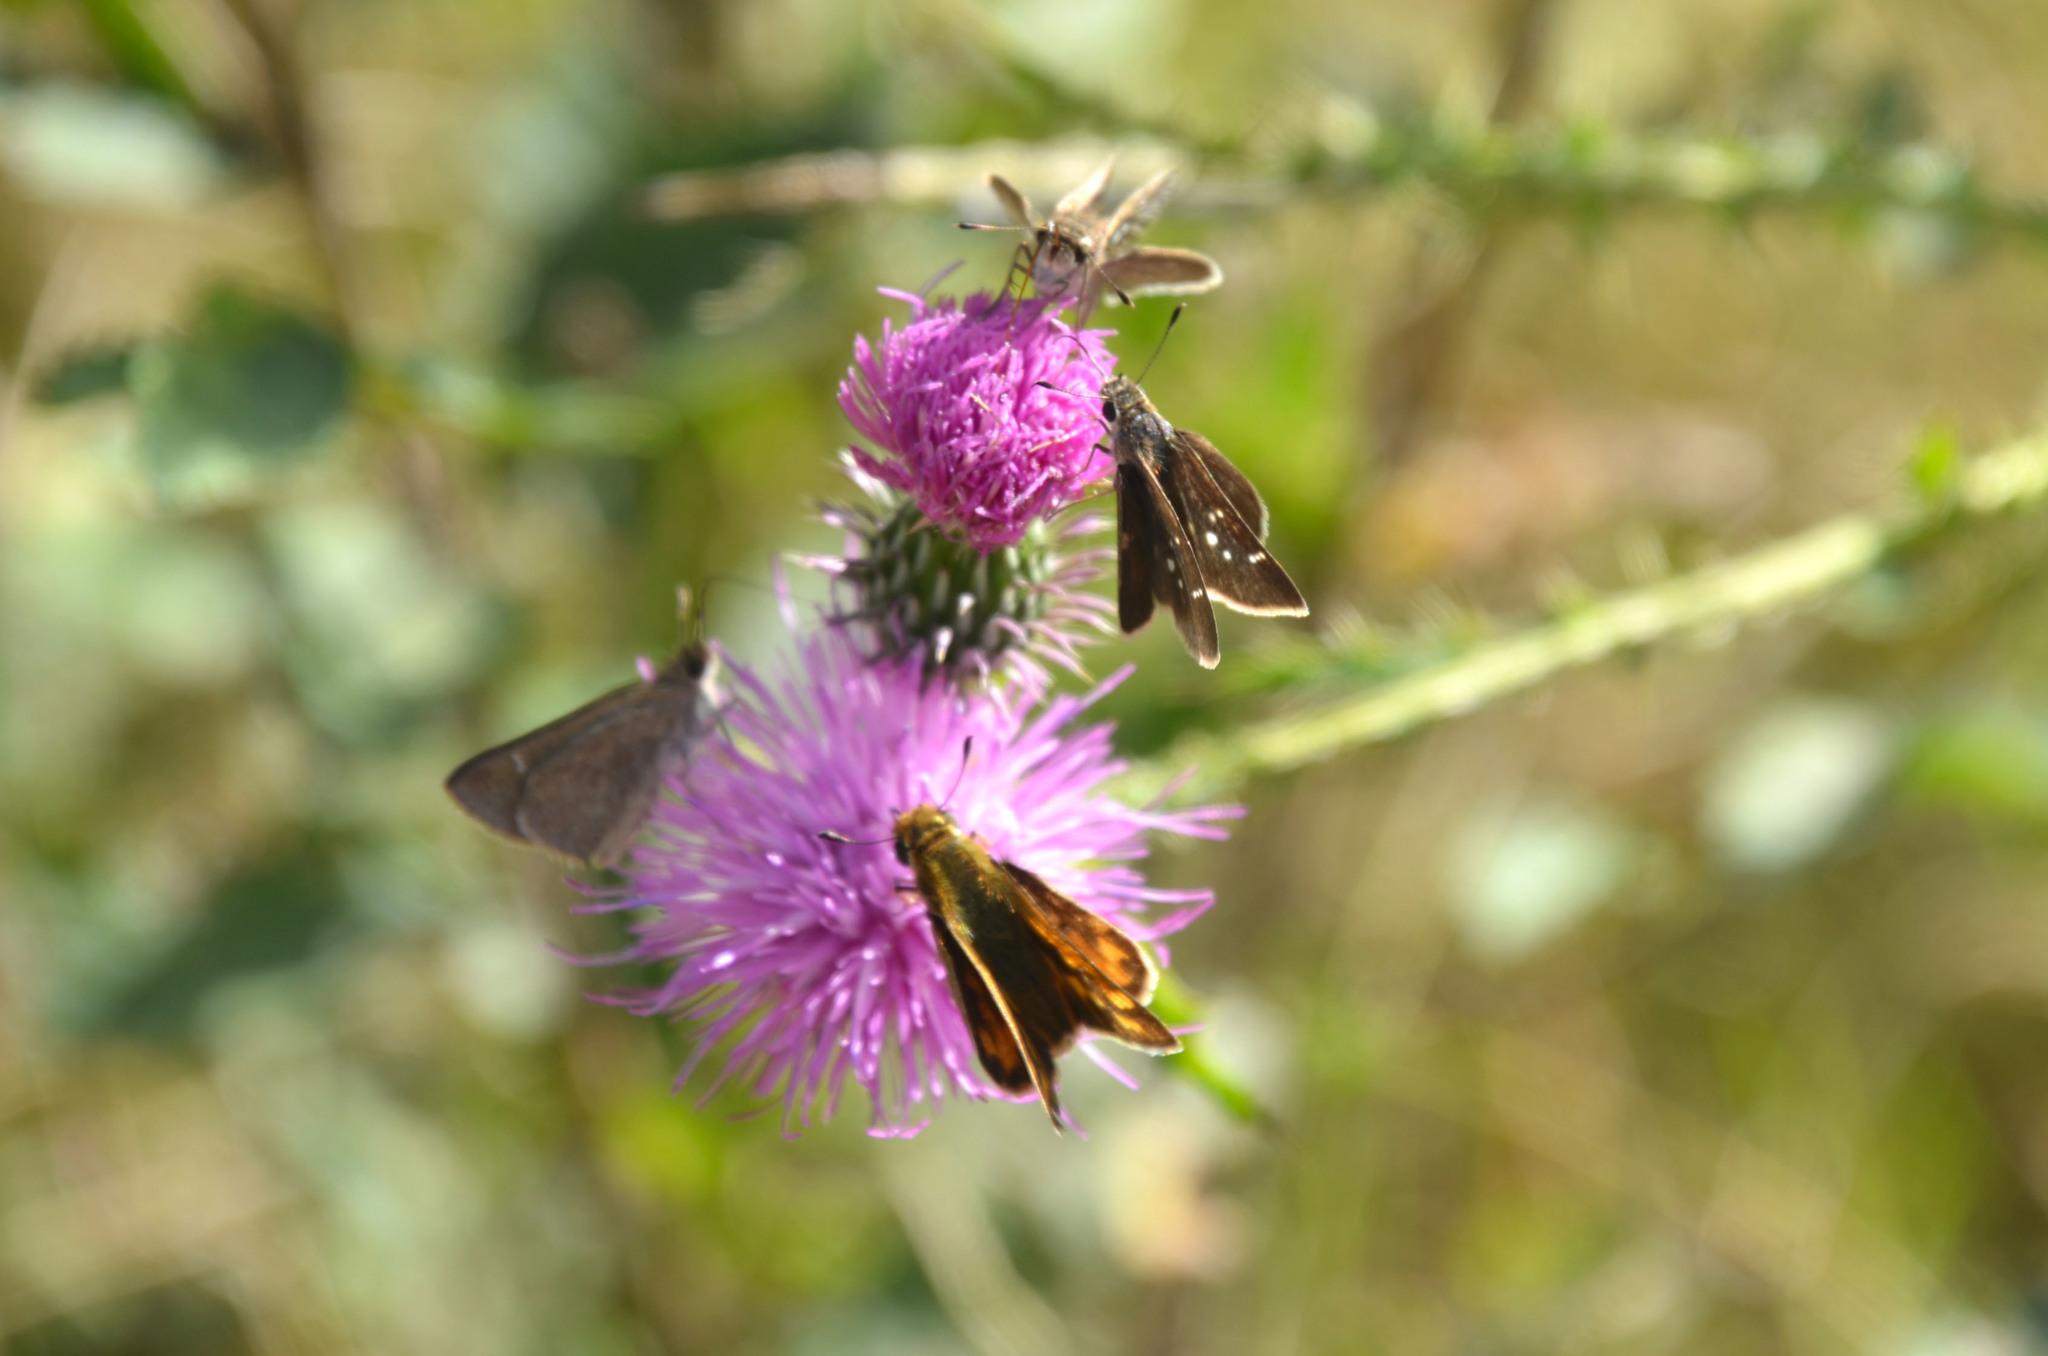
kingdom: Animalia
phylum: Arthropoda
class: Insecta
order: Lepidoptera
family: Hesperiidae
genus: Lerodea
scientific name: Lerodea eufala
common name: Eufala skipper
